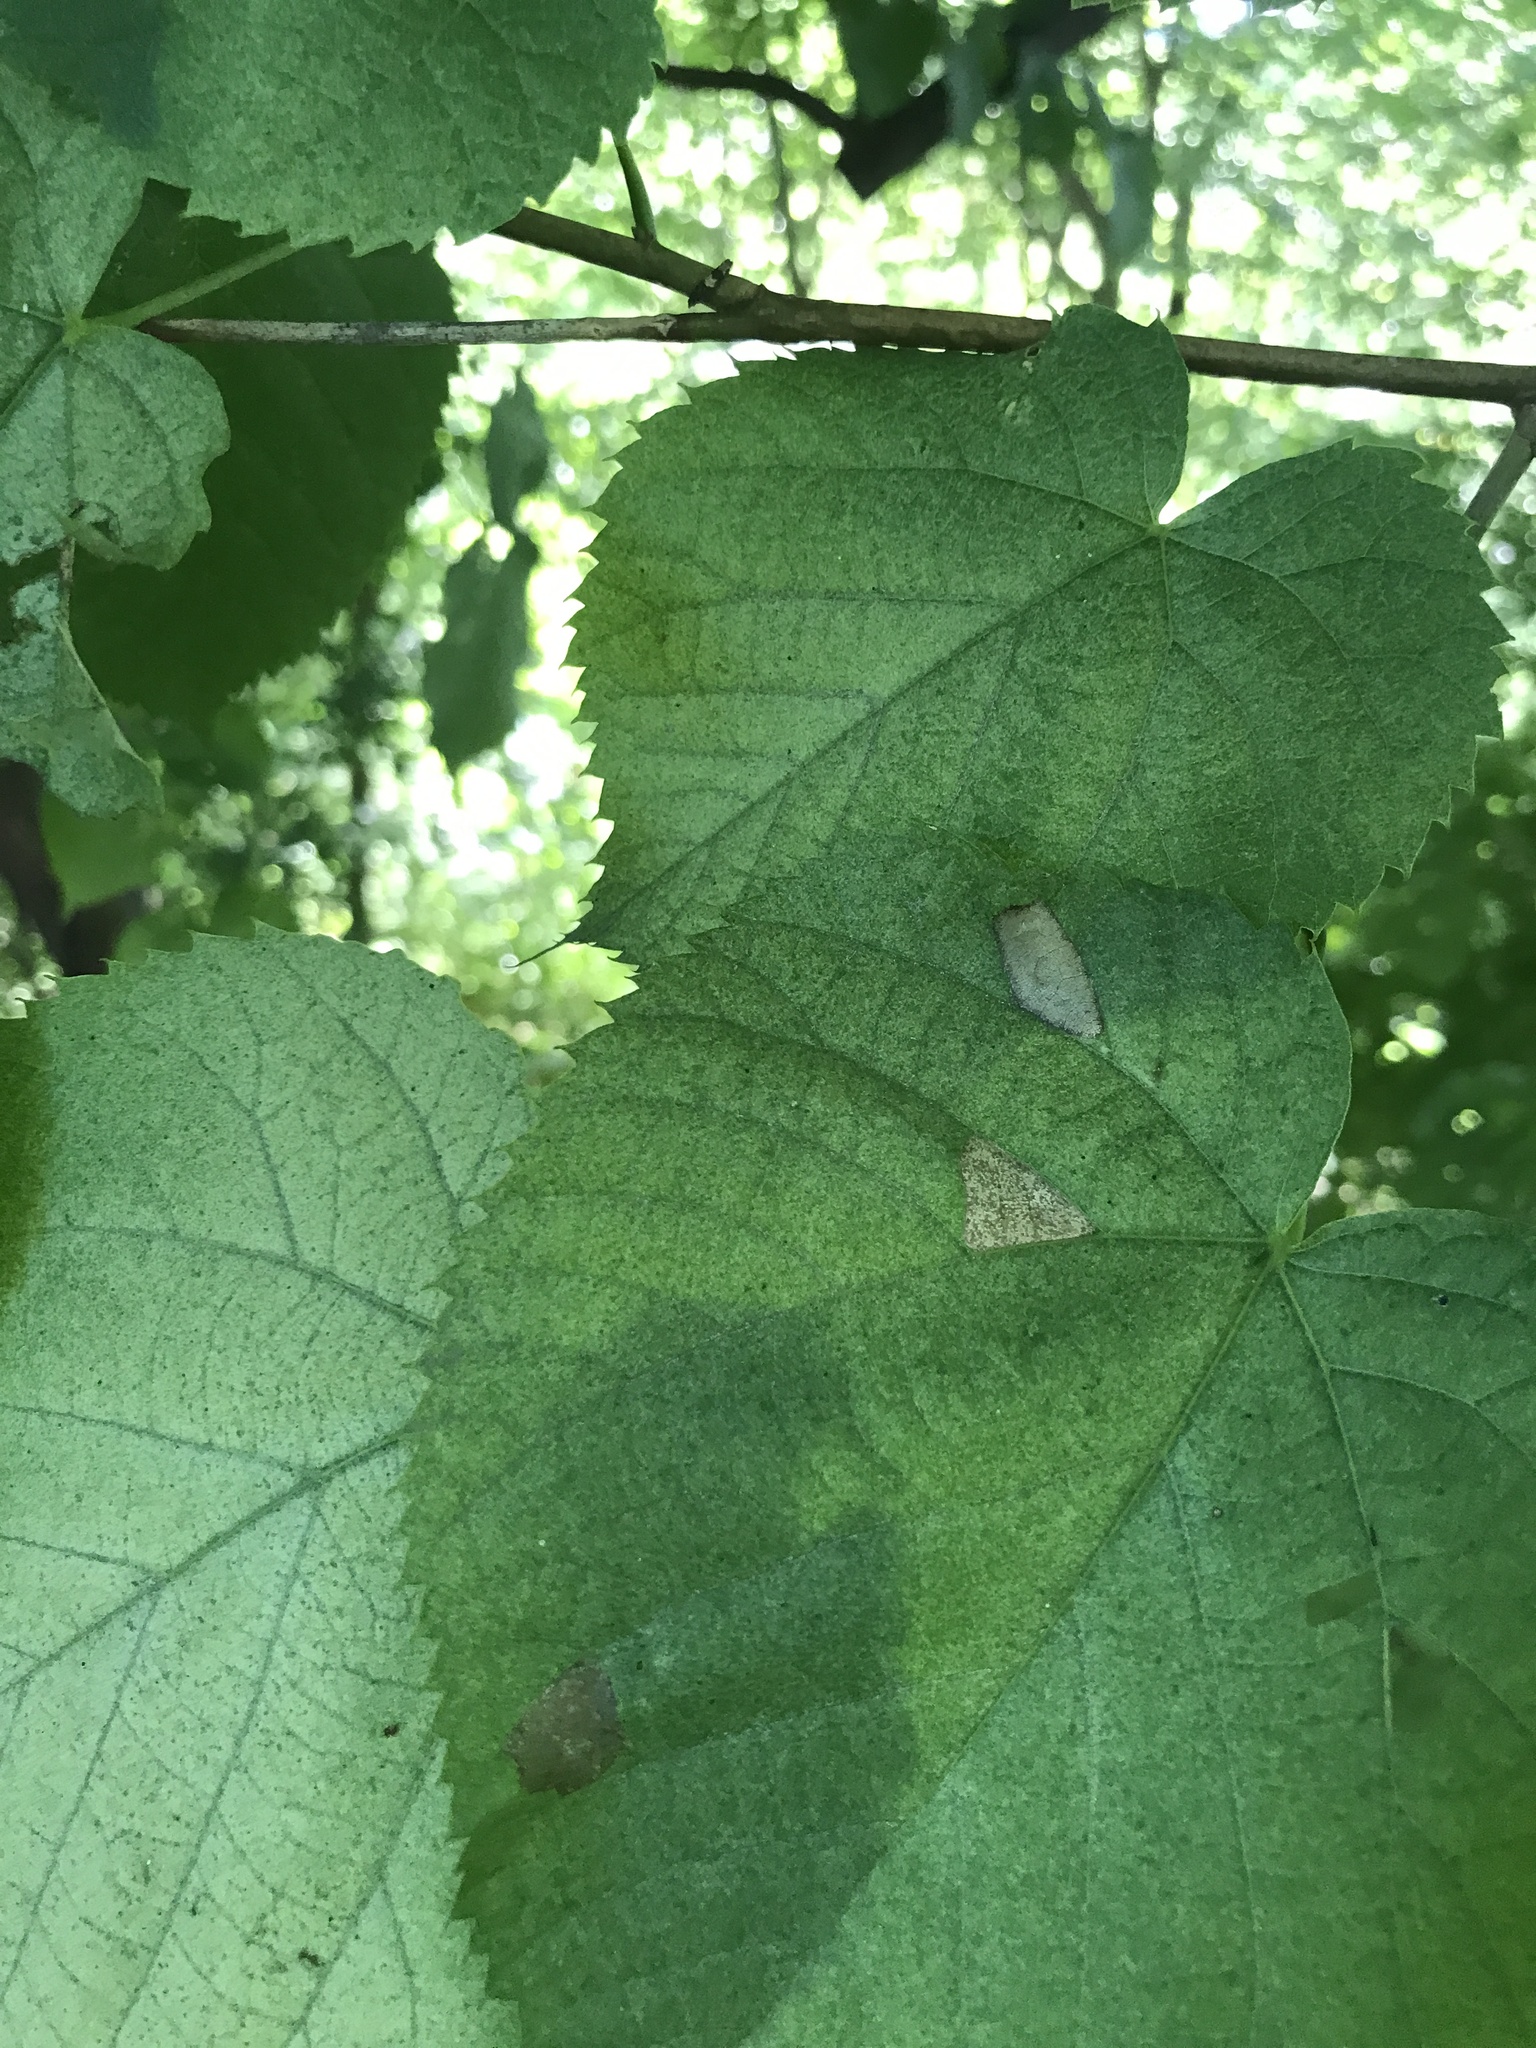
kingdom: Animalia
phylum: Arthropoda
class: Insecta
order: Lepidoptera
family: Gracillariidae
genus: Phyllonorycter
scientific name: Phyllonorycter lucetiella
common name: Basswood miner moth
